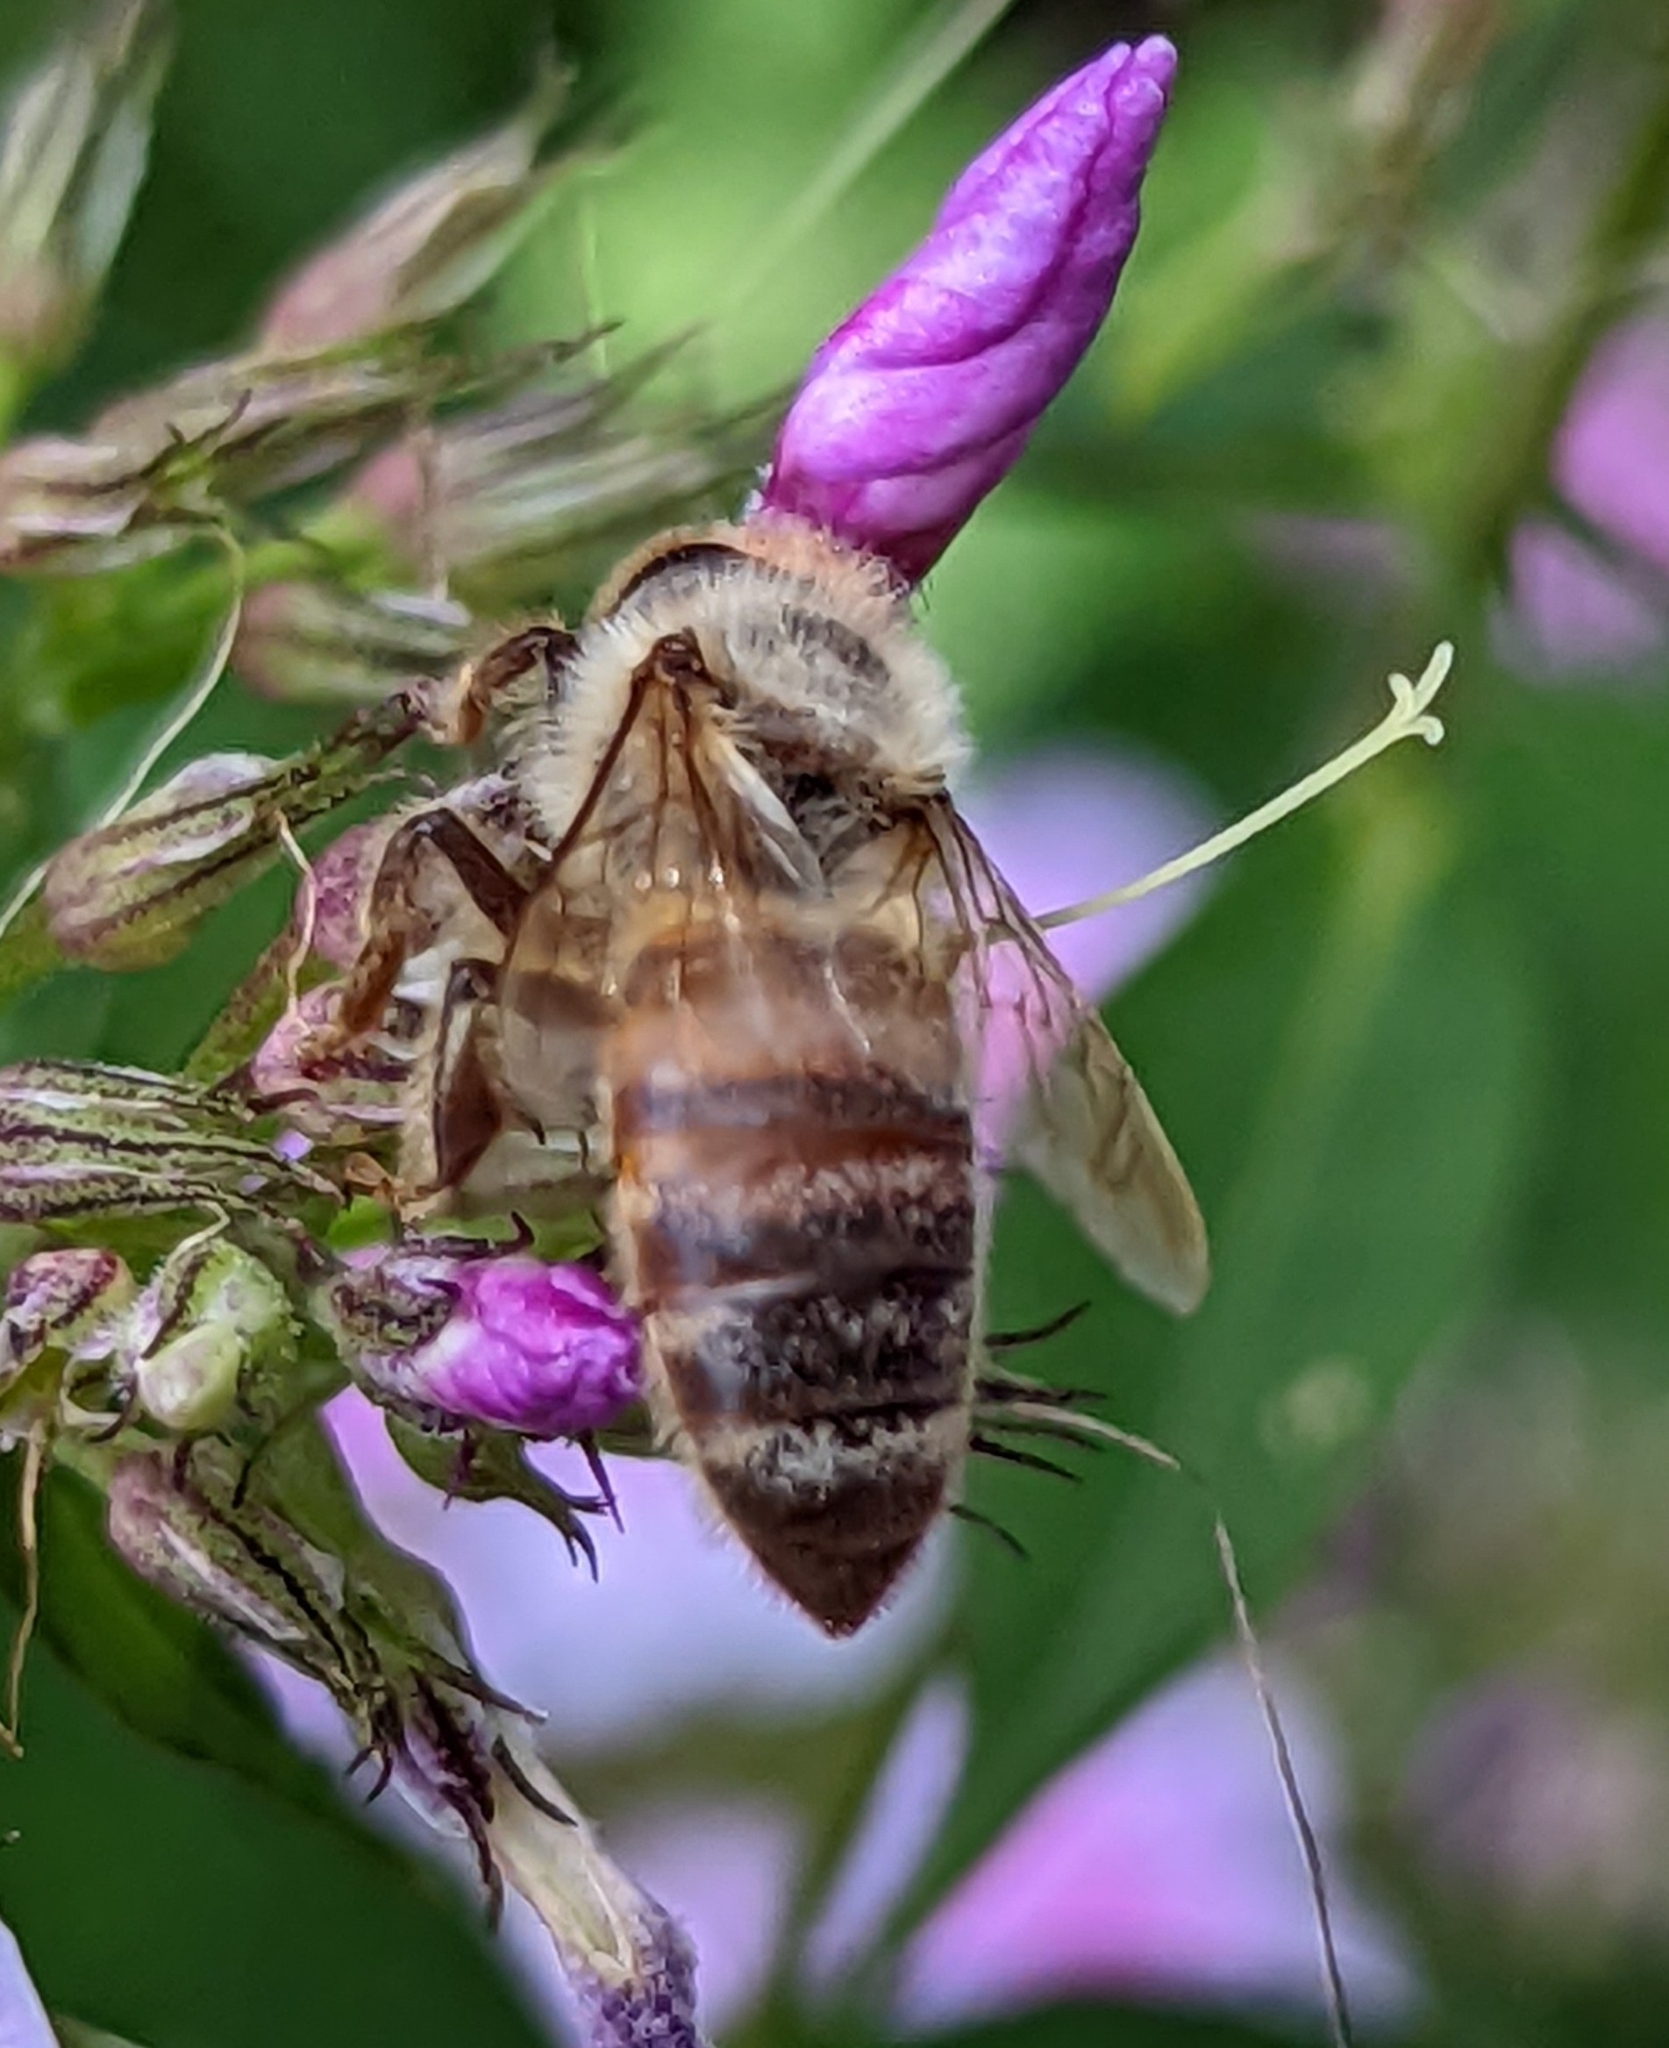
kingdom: Animalia
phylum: Arthropoda
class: Insecta
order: Hymenoptera
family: Apidae
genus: Apis
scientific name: Apis mellifera
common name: Honey bee
